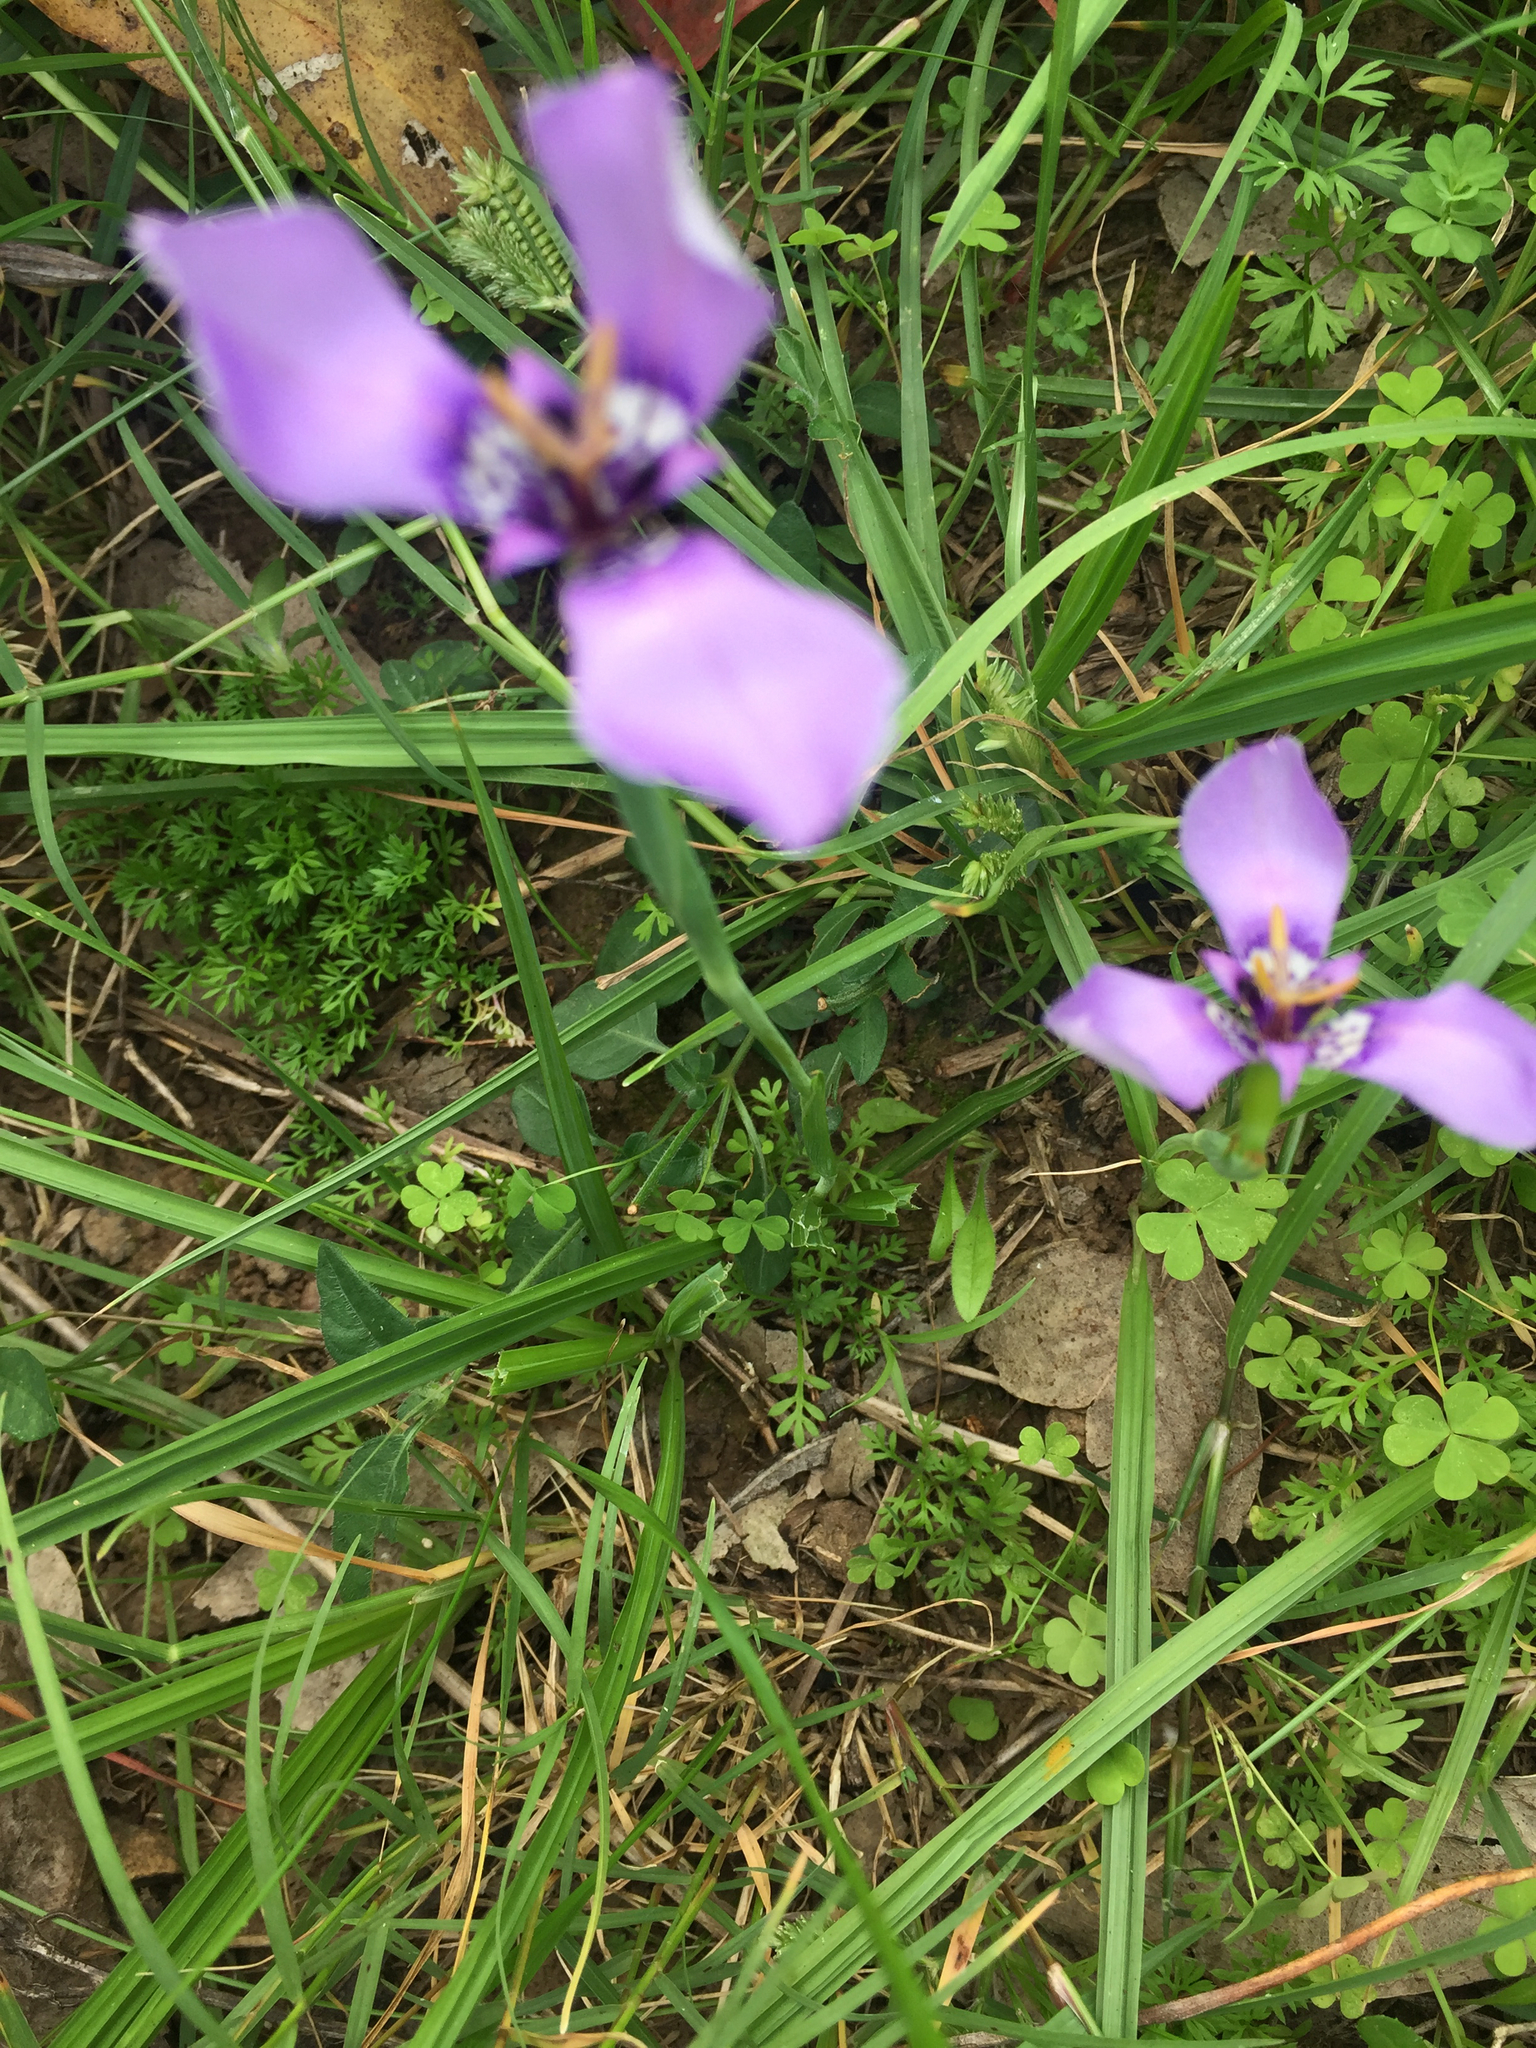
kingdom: Plantae
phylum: Tracheophyta
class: Liliopsida
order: Asparagales
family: Iridaceae
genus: Herbertia
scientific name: Herbertia lahue
